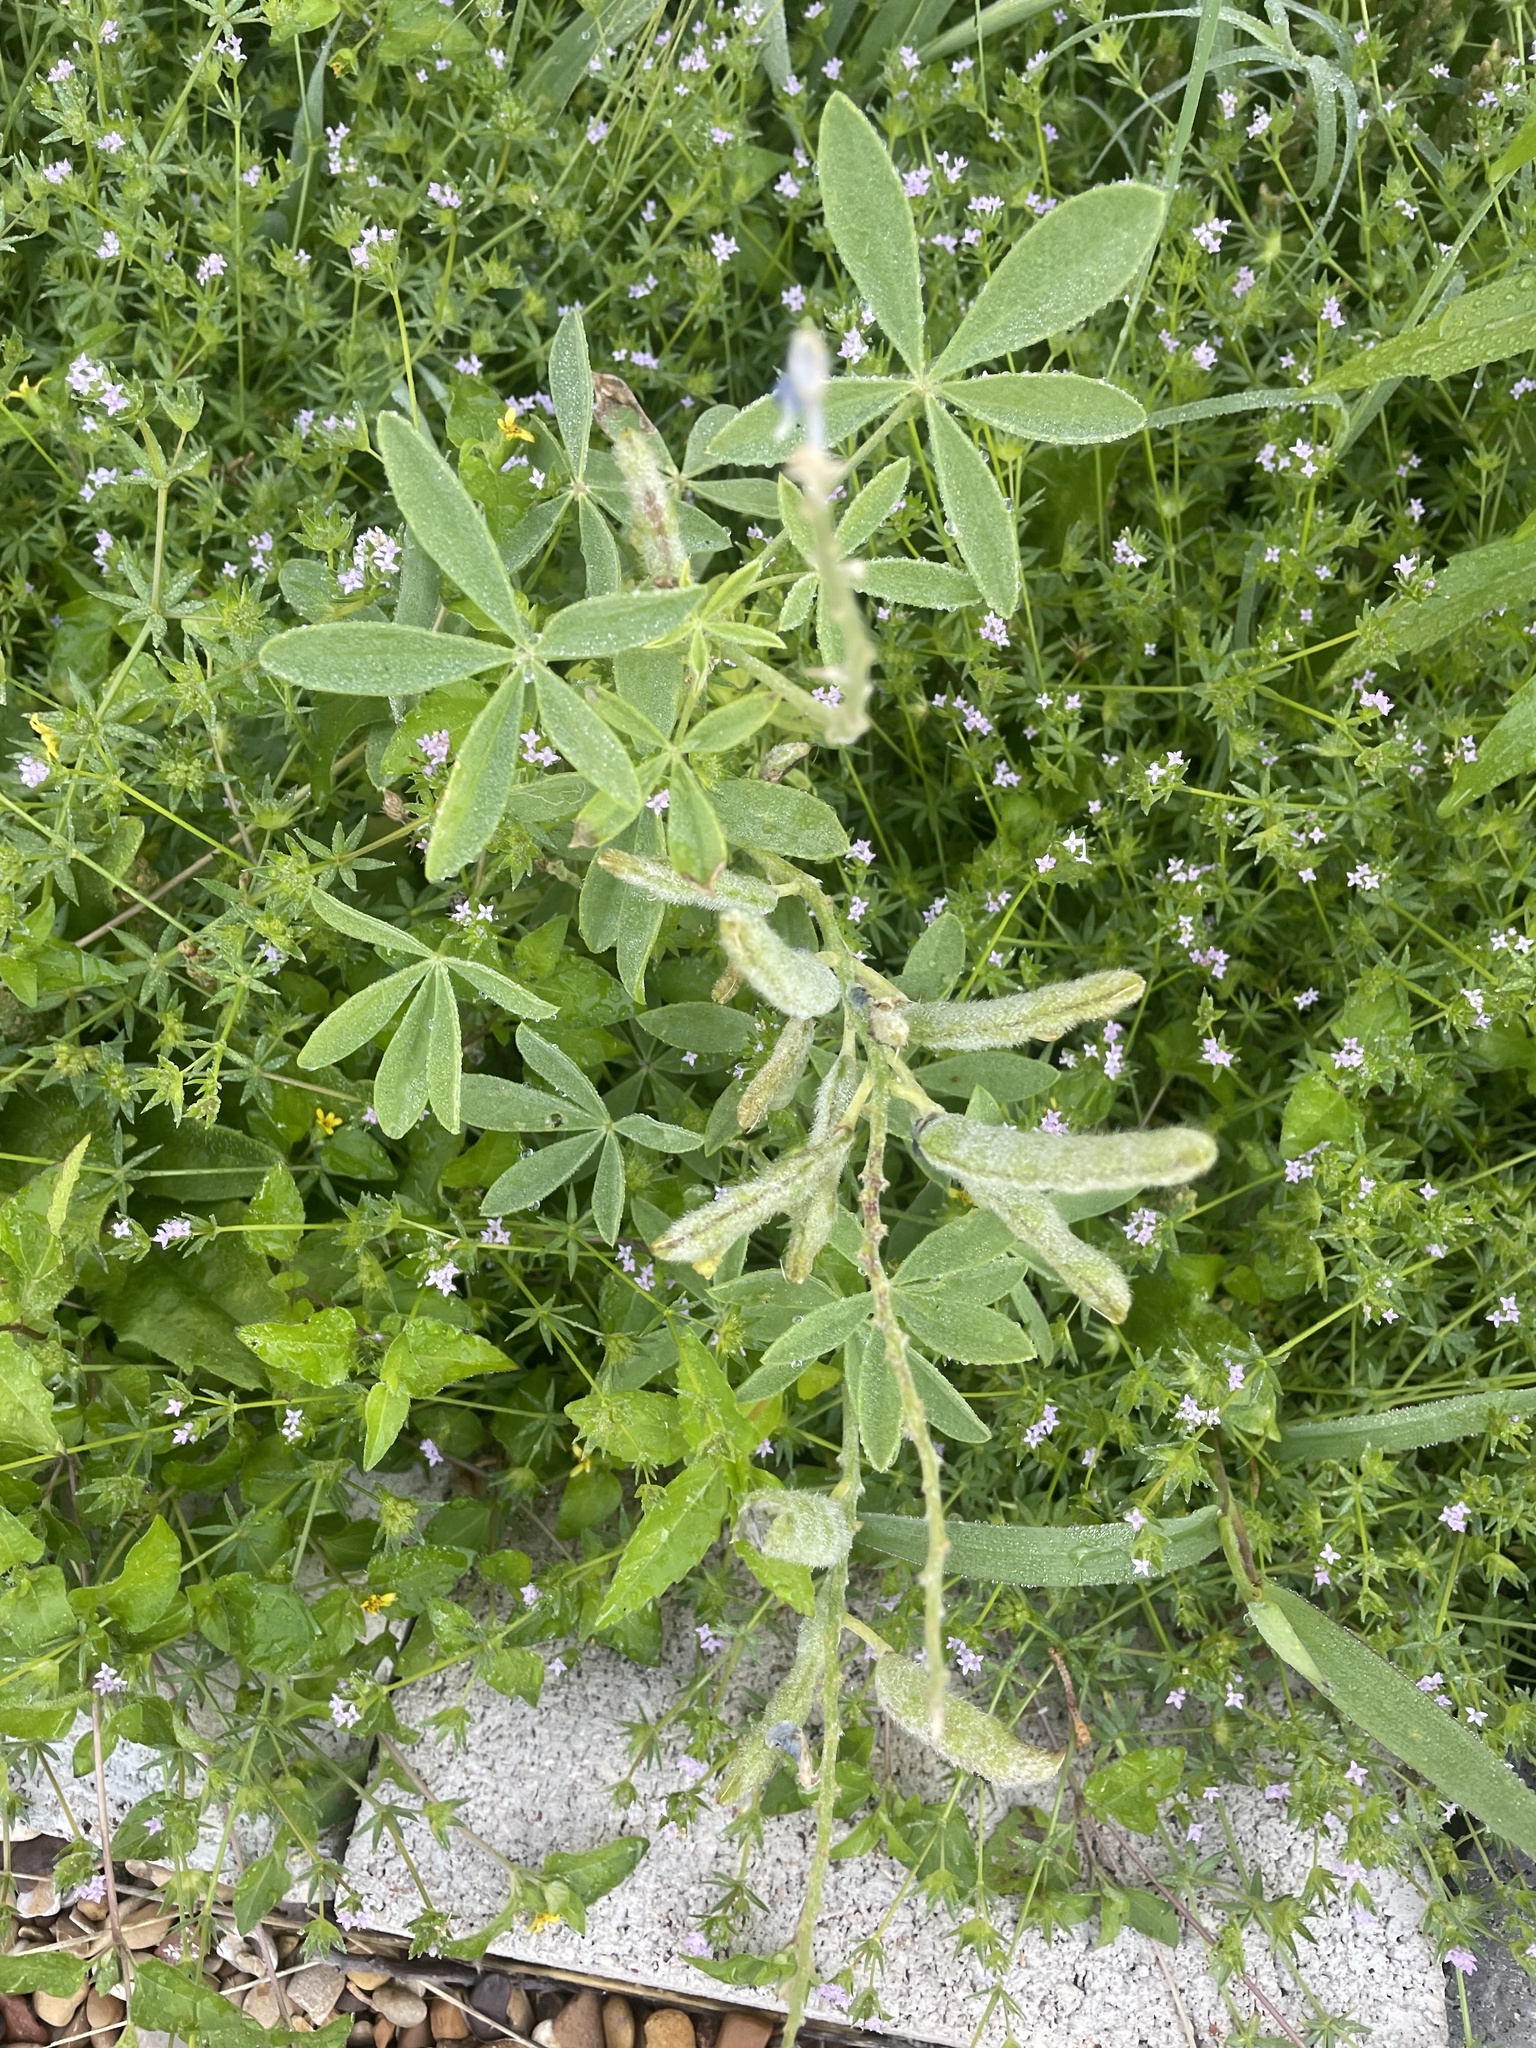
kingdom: Plantae
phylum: Tracheophyta
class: Magnoliopsida
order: Fabales
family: Fabaceae
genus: Lupinus
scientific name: Lupinus texensis
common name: Texas bluebonnet
